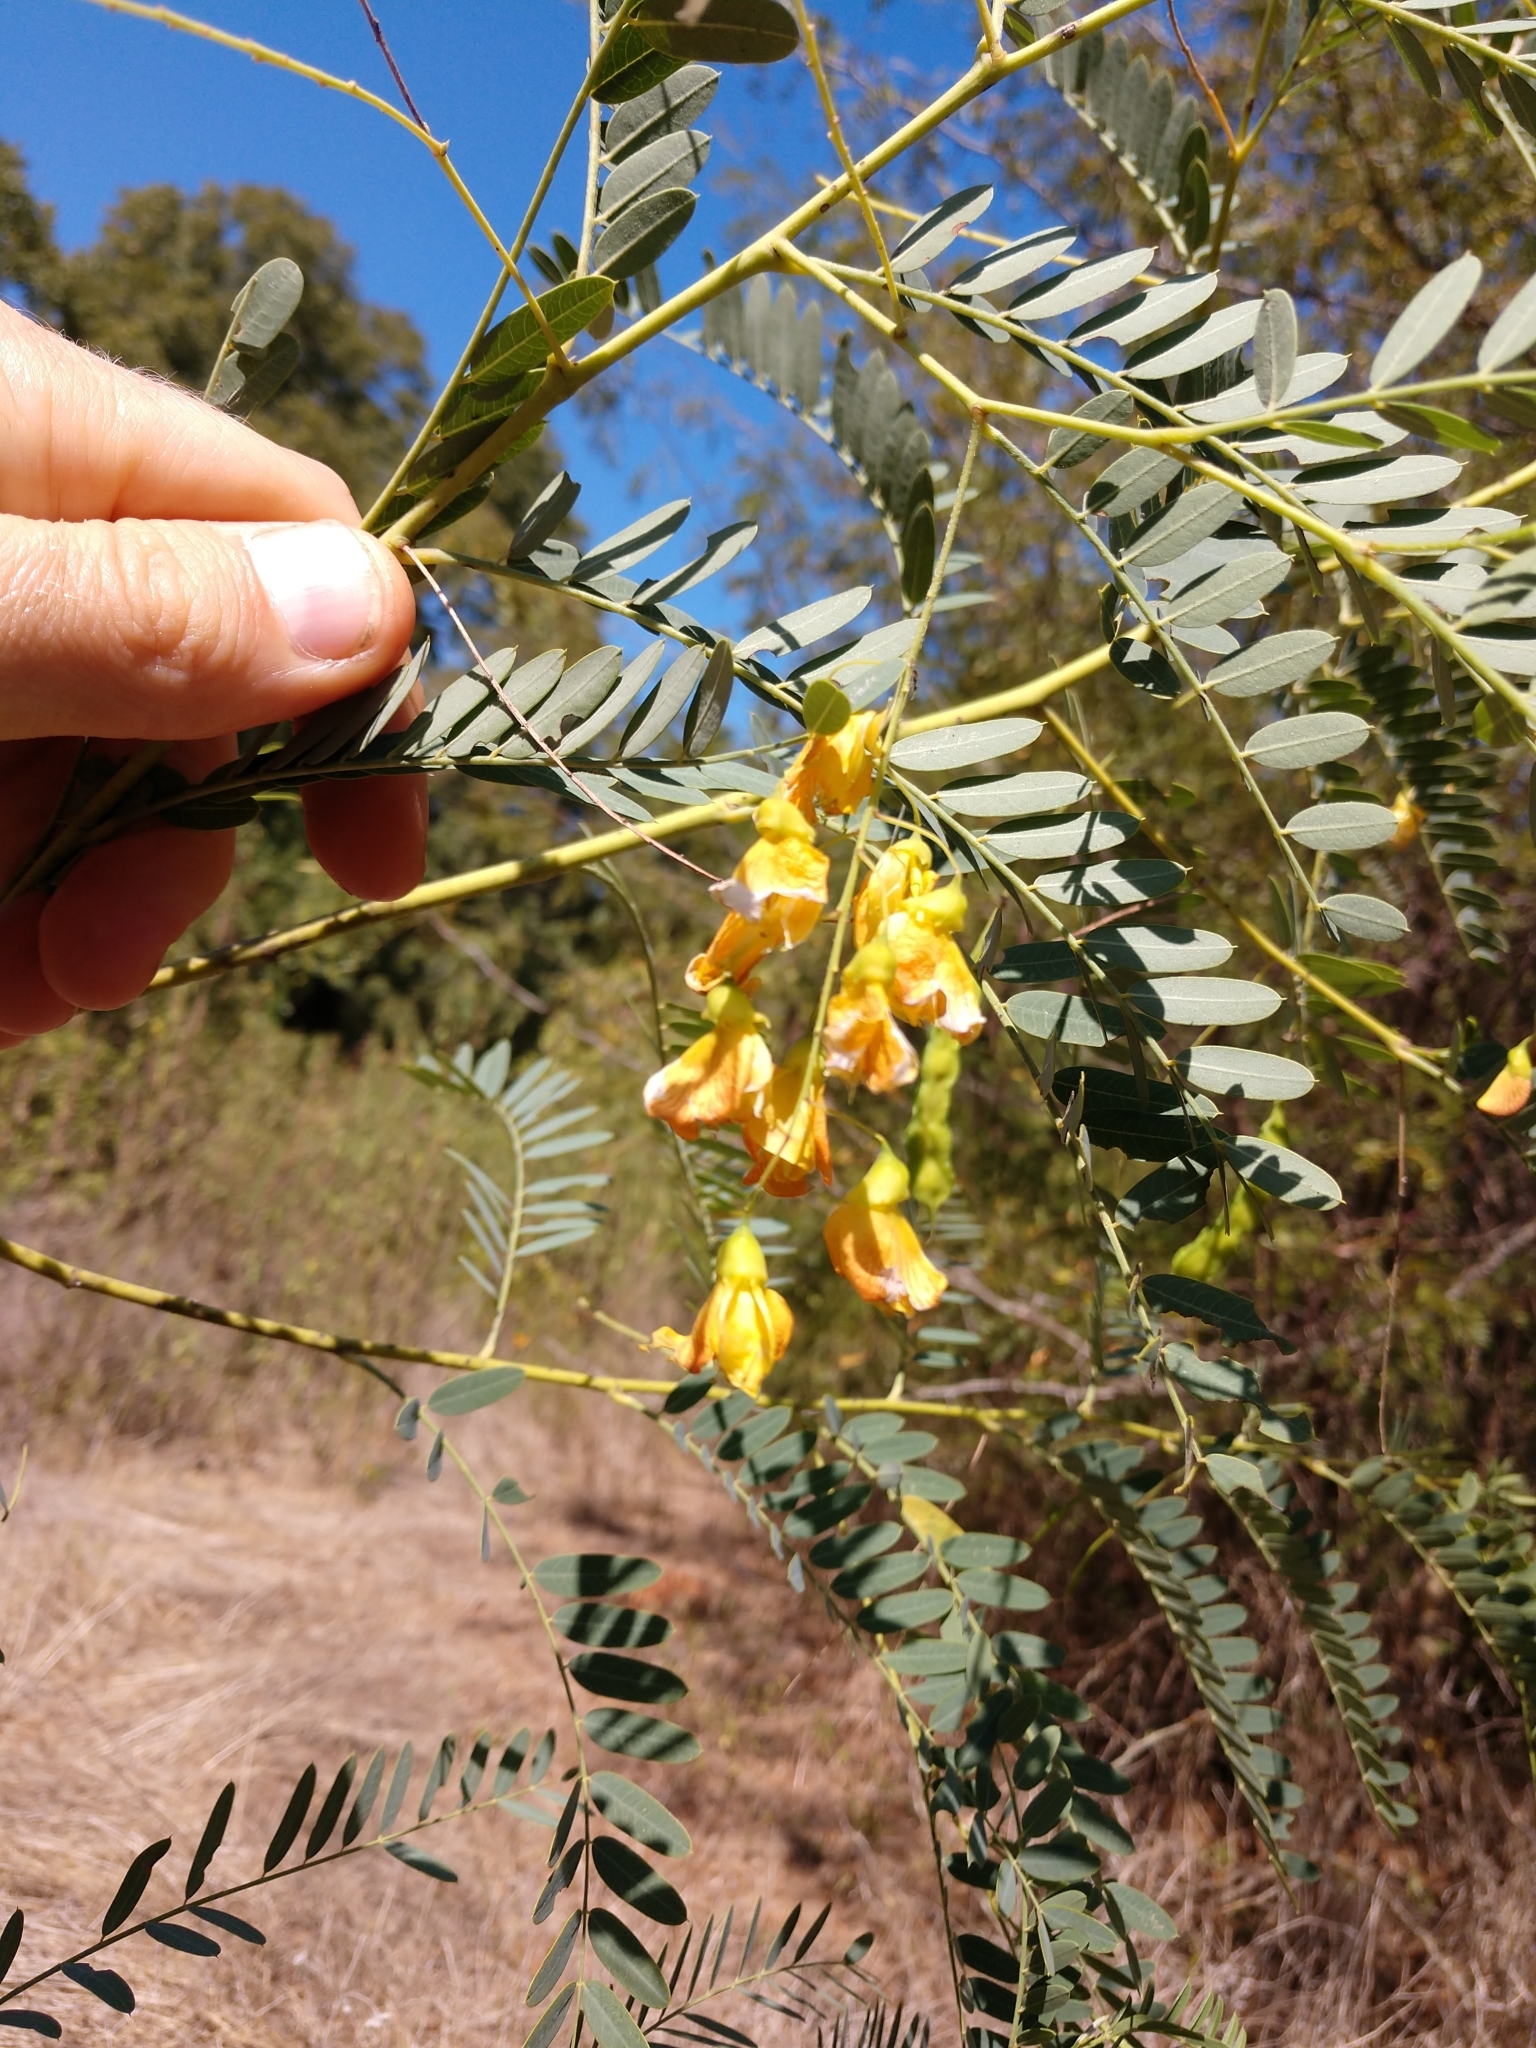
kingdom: Plantae
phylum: Tracheophyta
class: Magnoliopsida
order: Fabales
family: Fabaceae
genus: Sesbania
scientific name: Sesbania drummondii
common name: Poison-bean
